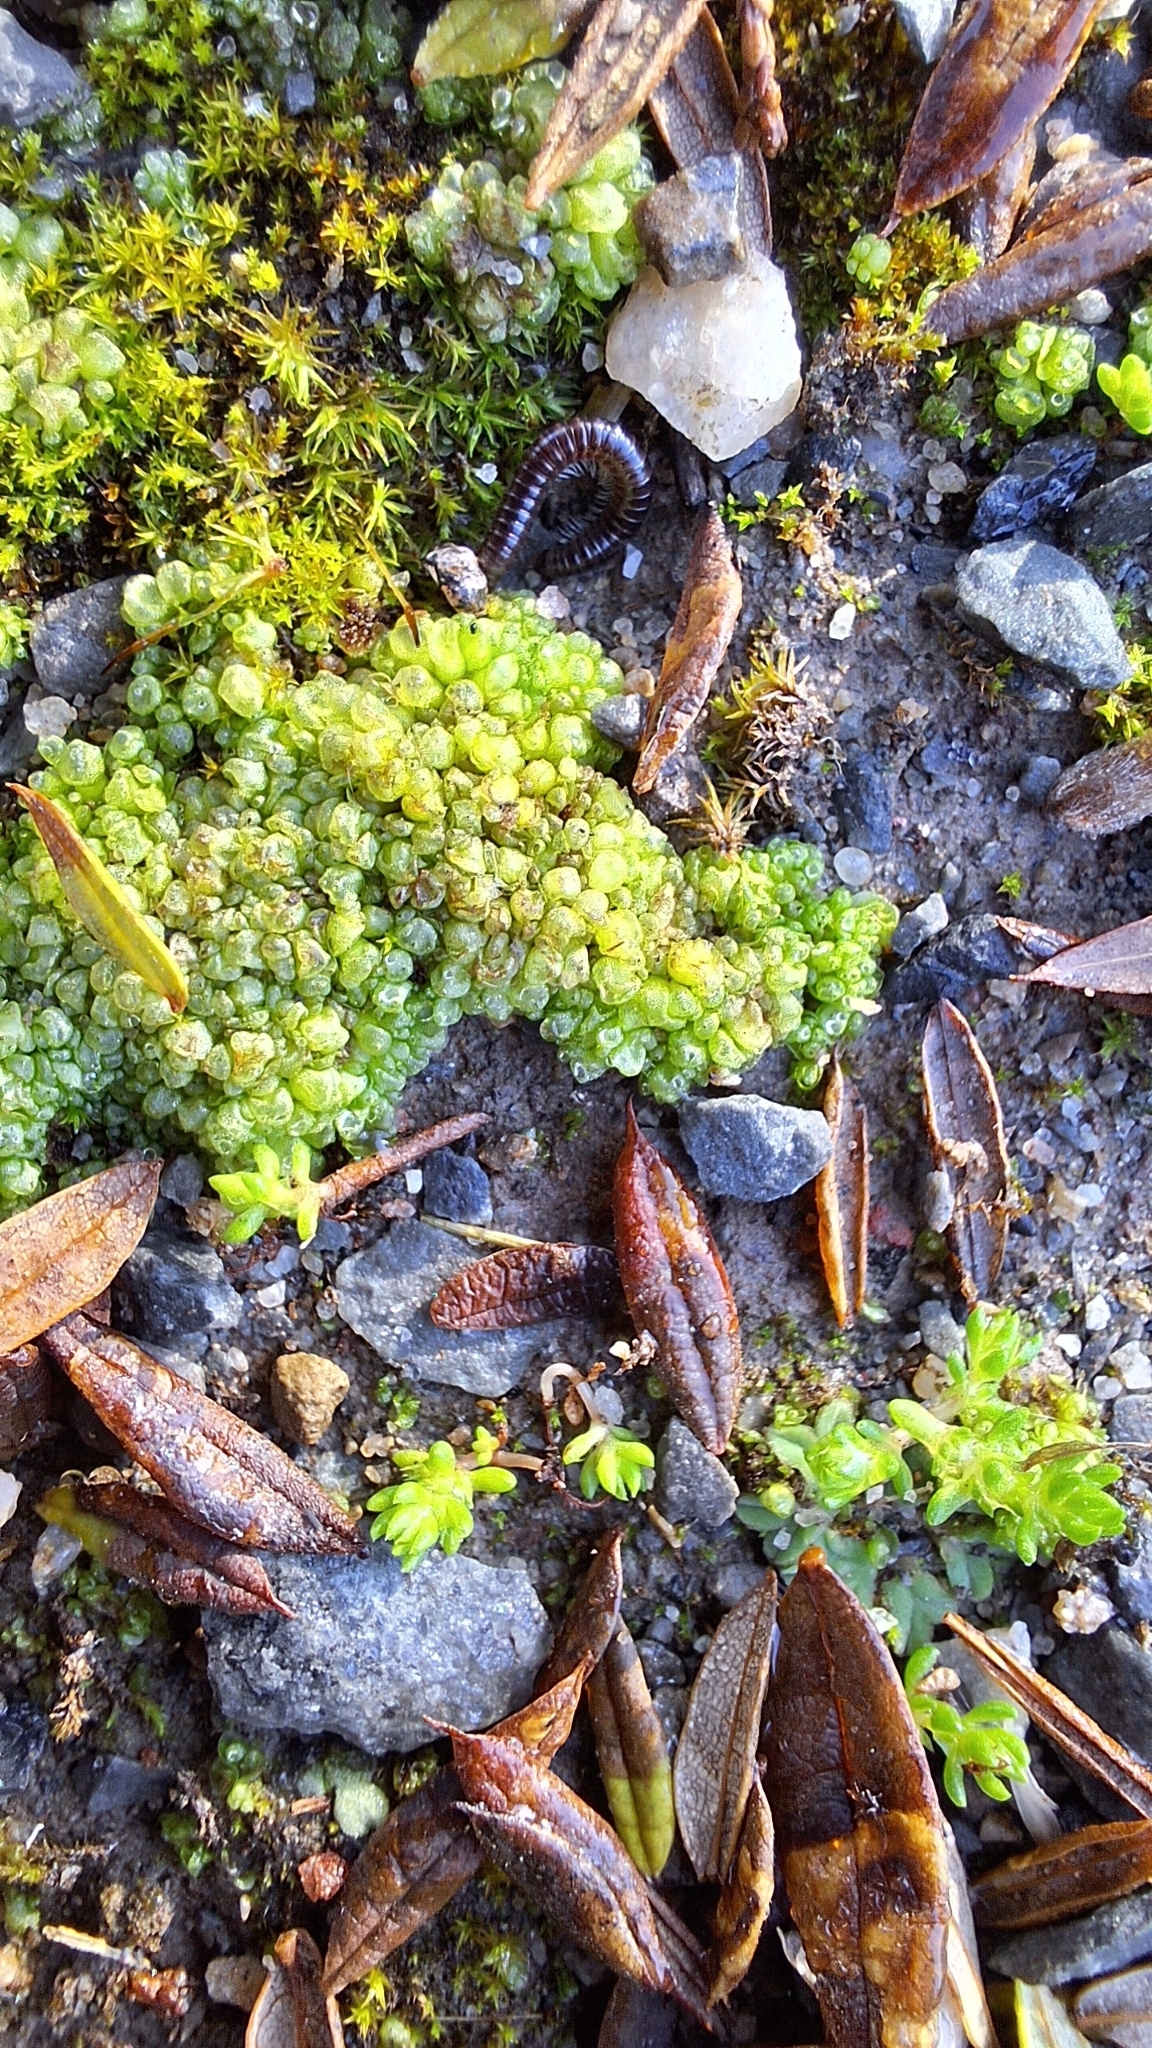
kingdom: Plantae
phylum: Marchantiophyta
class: Marchantiopsida
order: Sphaerocarpales
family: Sphaerocarpaceae
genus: Sphaerocarpos
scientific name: Sphaerocarpos texanus
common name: Texas balloonwort
